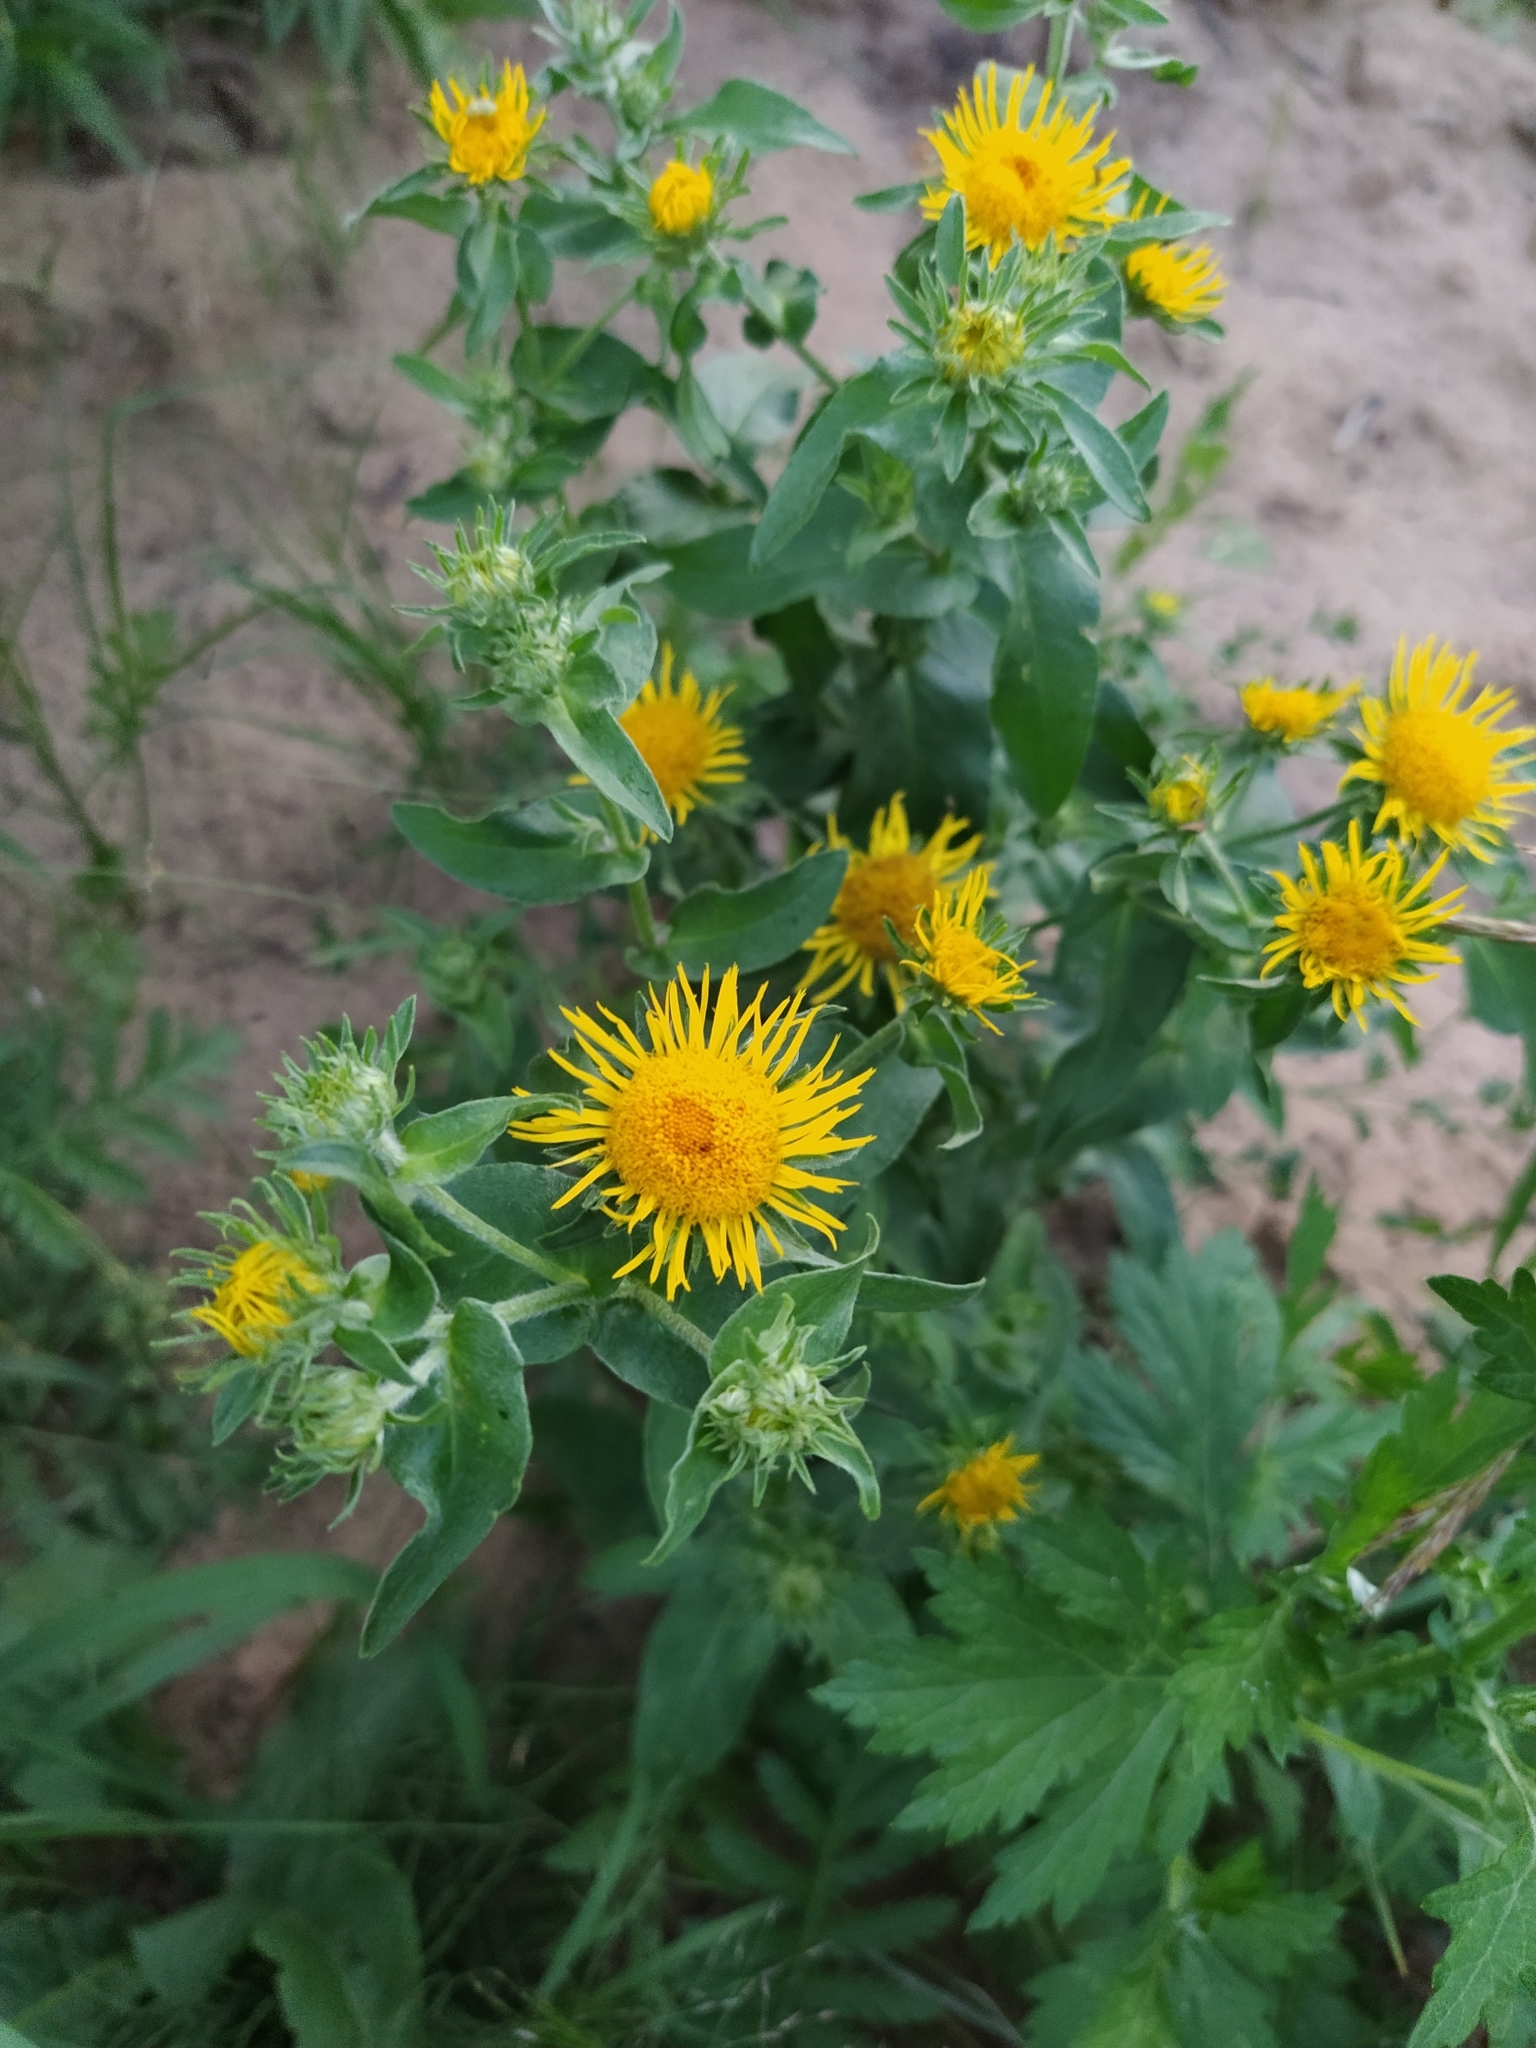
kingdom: Plantae
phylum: Tracheophyta
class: Magnoliopsida
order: Asterales
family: Asteraceae
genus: Pentanema
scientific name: Pentanema britannicum
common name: British elecampane
